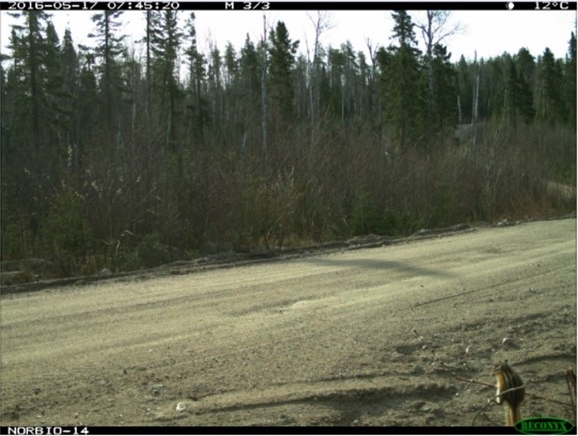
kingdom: Animalia
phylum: Chordata
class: Mammalia
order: Rodentia
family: Sciuridae
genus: Tamias
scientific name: Tamias minimus
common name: Least chipmunk
